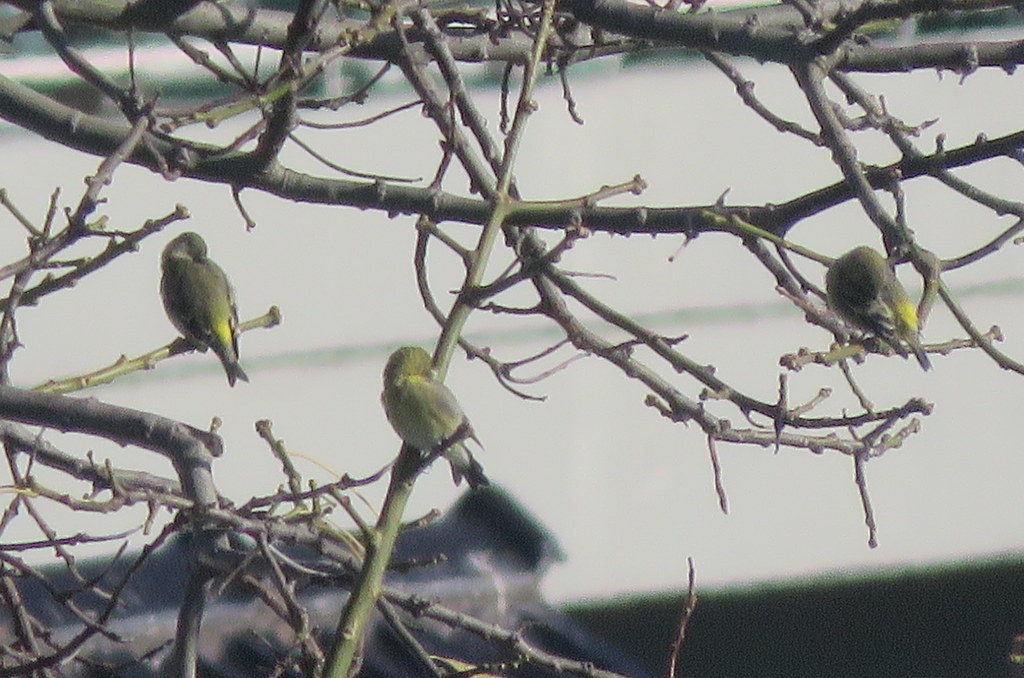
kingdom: Animalia
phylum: Chordata
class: Aves
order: Passeriformes
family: Fringillidae
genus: Spinus
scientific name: Spinus magellanicus
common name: Hooded siskin
